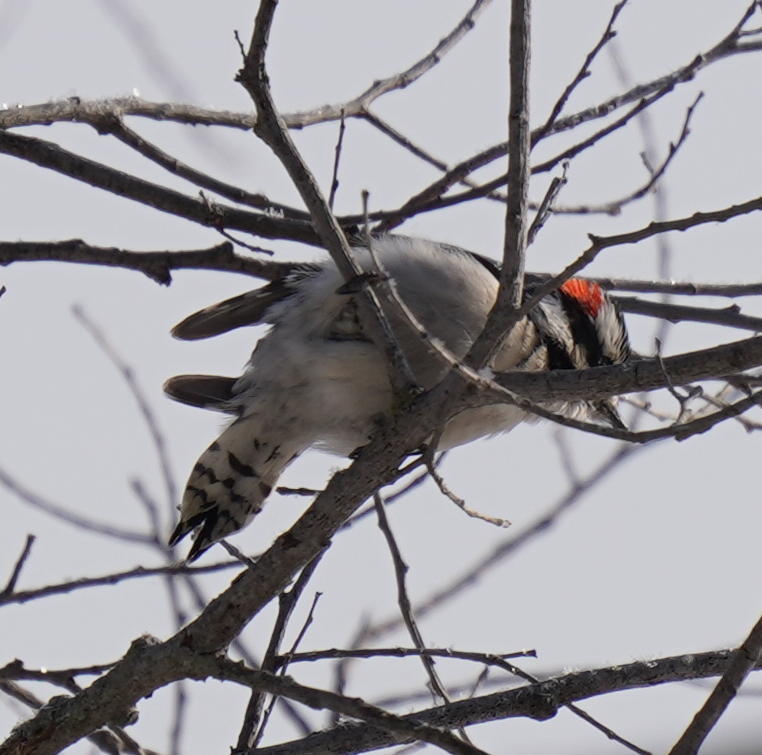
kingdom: Animalia
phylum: Chordata
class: Aves
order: Piciformes
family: Picidae
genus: Dryobates
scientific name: Dryobates pubescens
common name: Downy woodpecker
